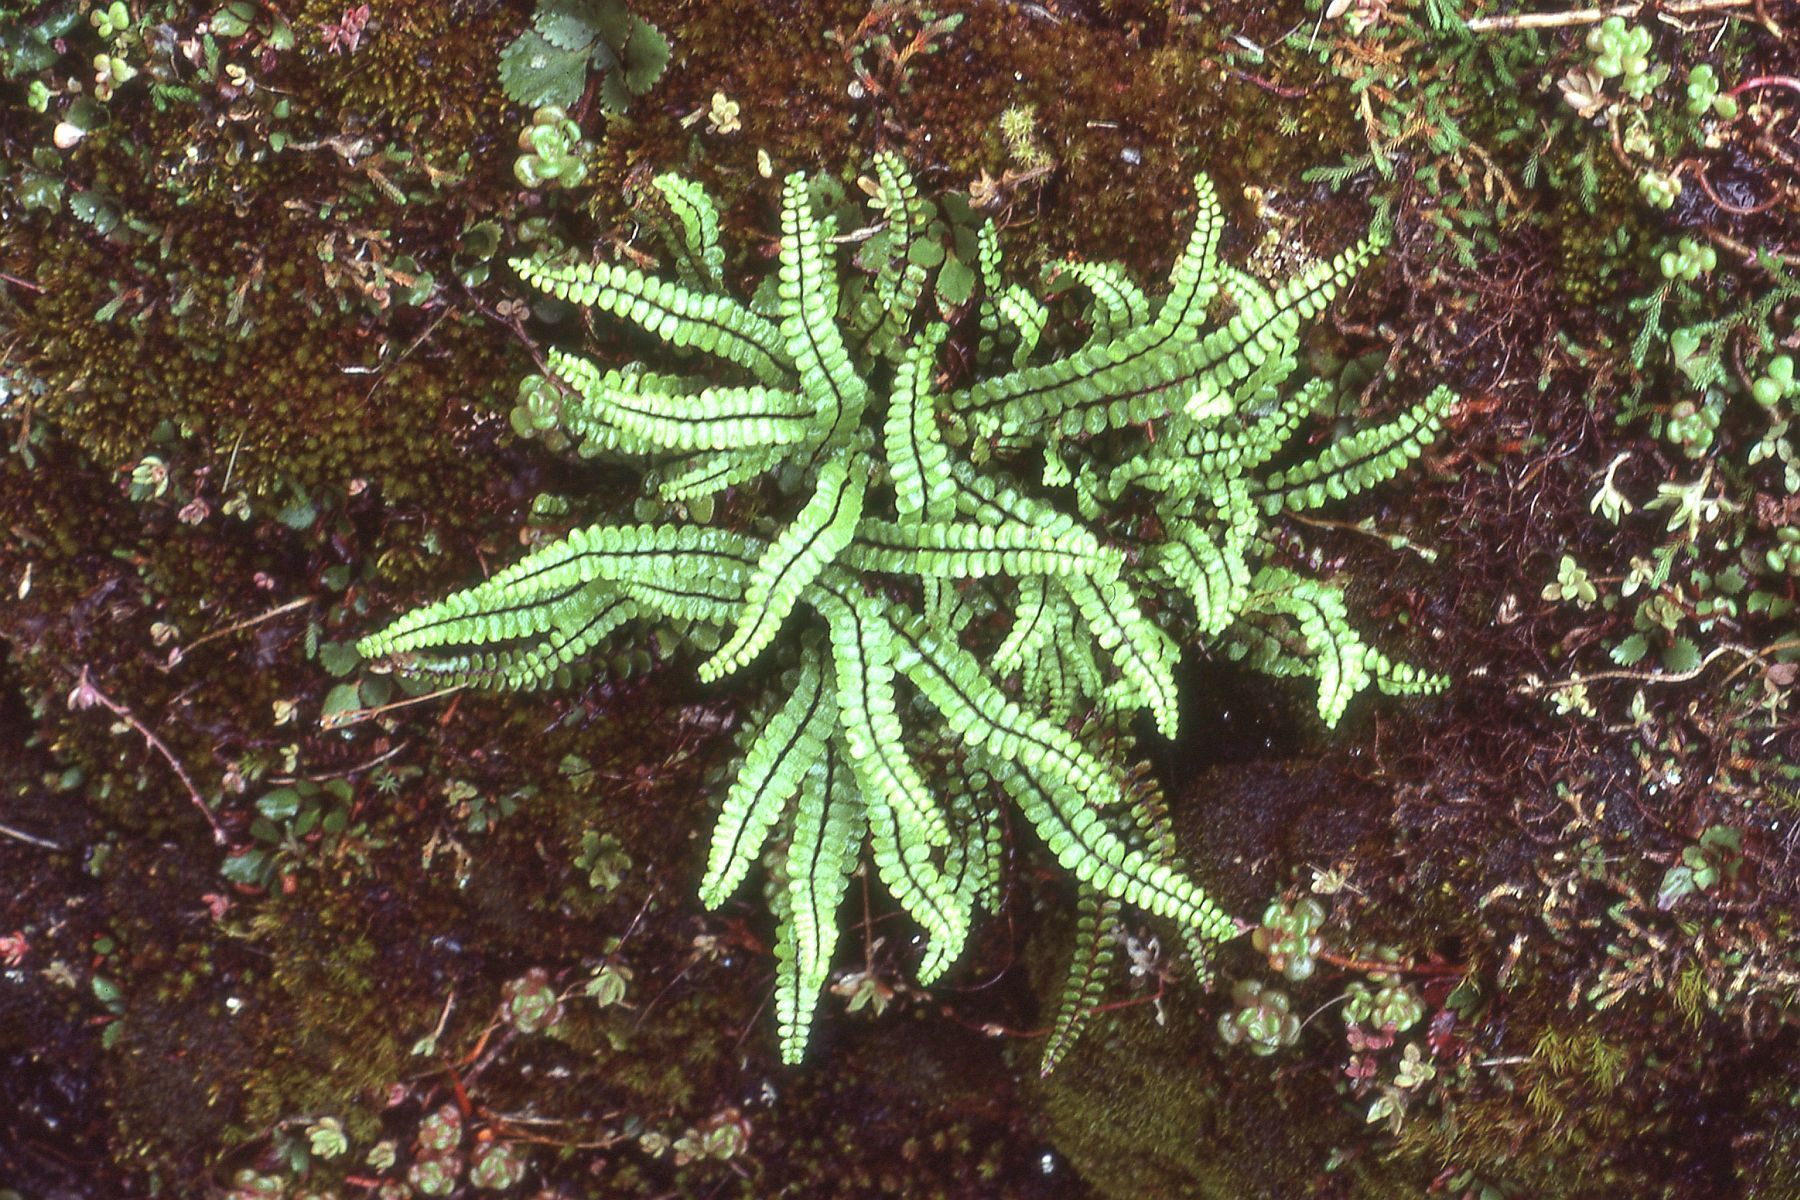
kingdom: Plantae
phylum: Tracheophyta
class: Polypodiopsida
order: Polypodiales
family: Aspleniaceae
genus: Asplenium
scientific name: Asplenium trichomanes
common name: Maidenhair spleenwort
